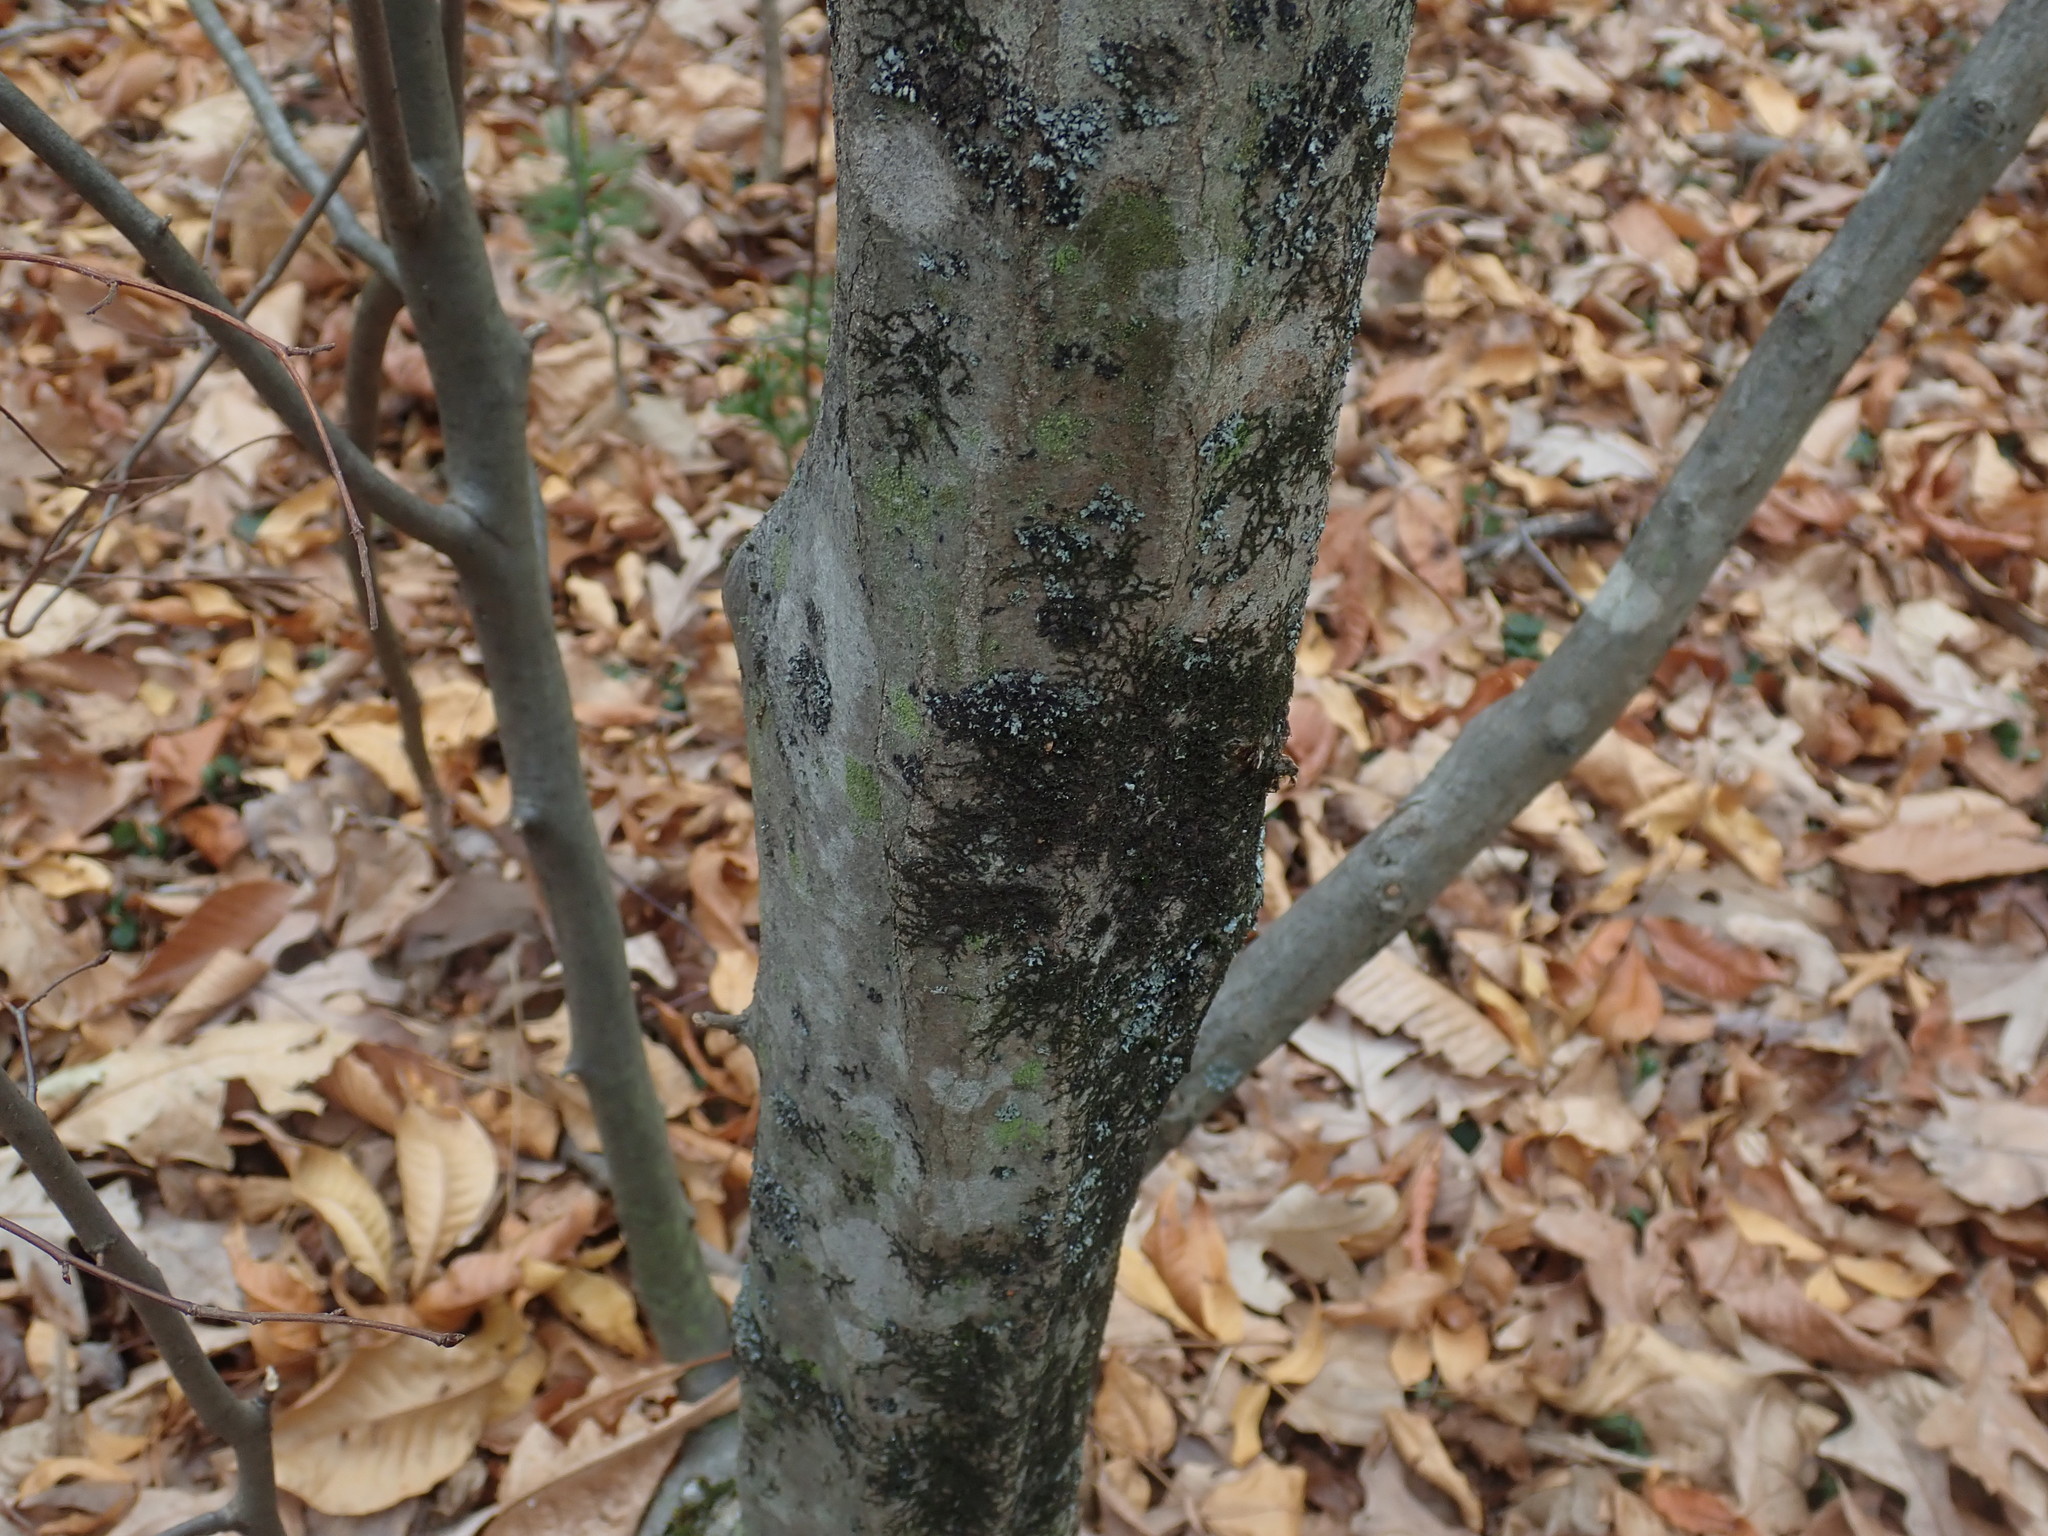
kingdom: Plantae
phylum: Tracheophyta
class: Magnoliopsida
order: Fagales
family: Betulaceae
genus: Carpinus
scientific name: Carpinus caroliniana
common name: American hornbeam
